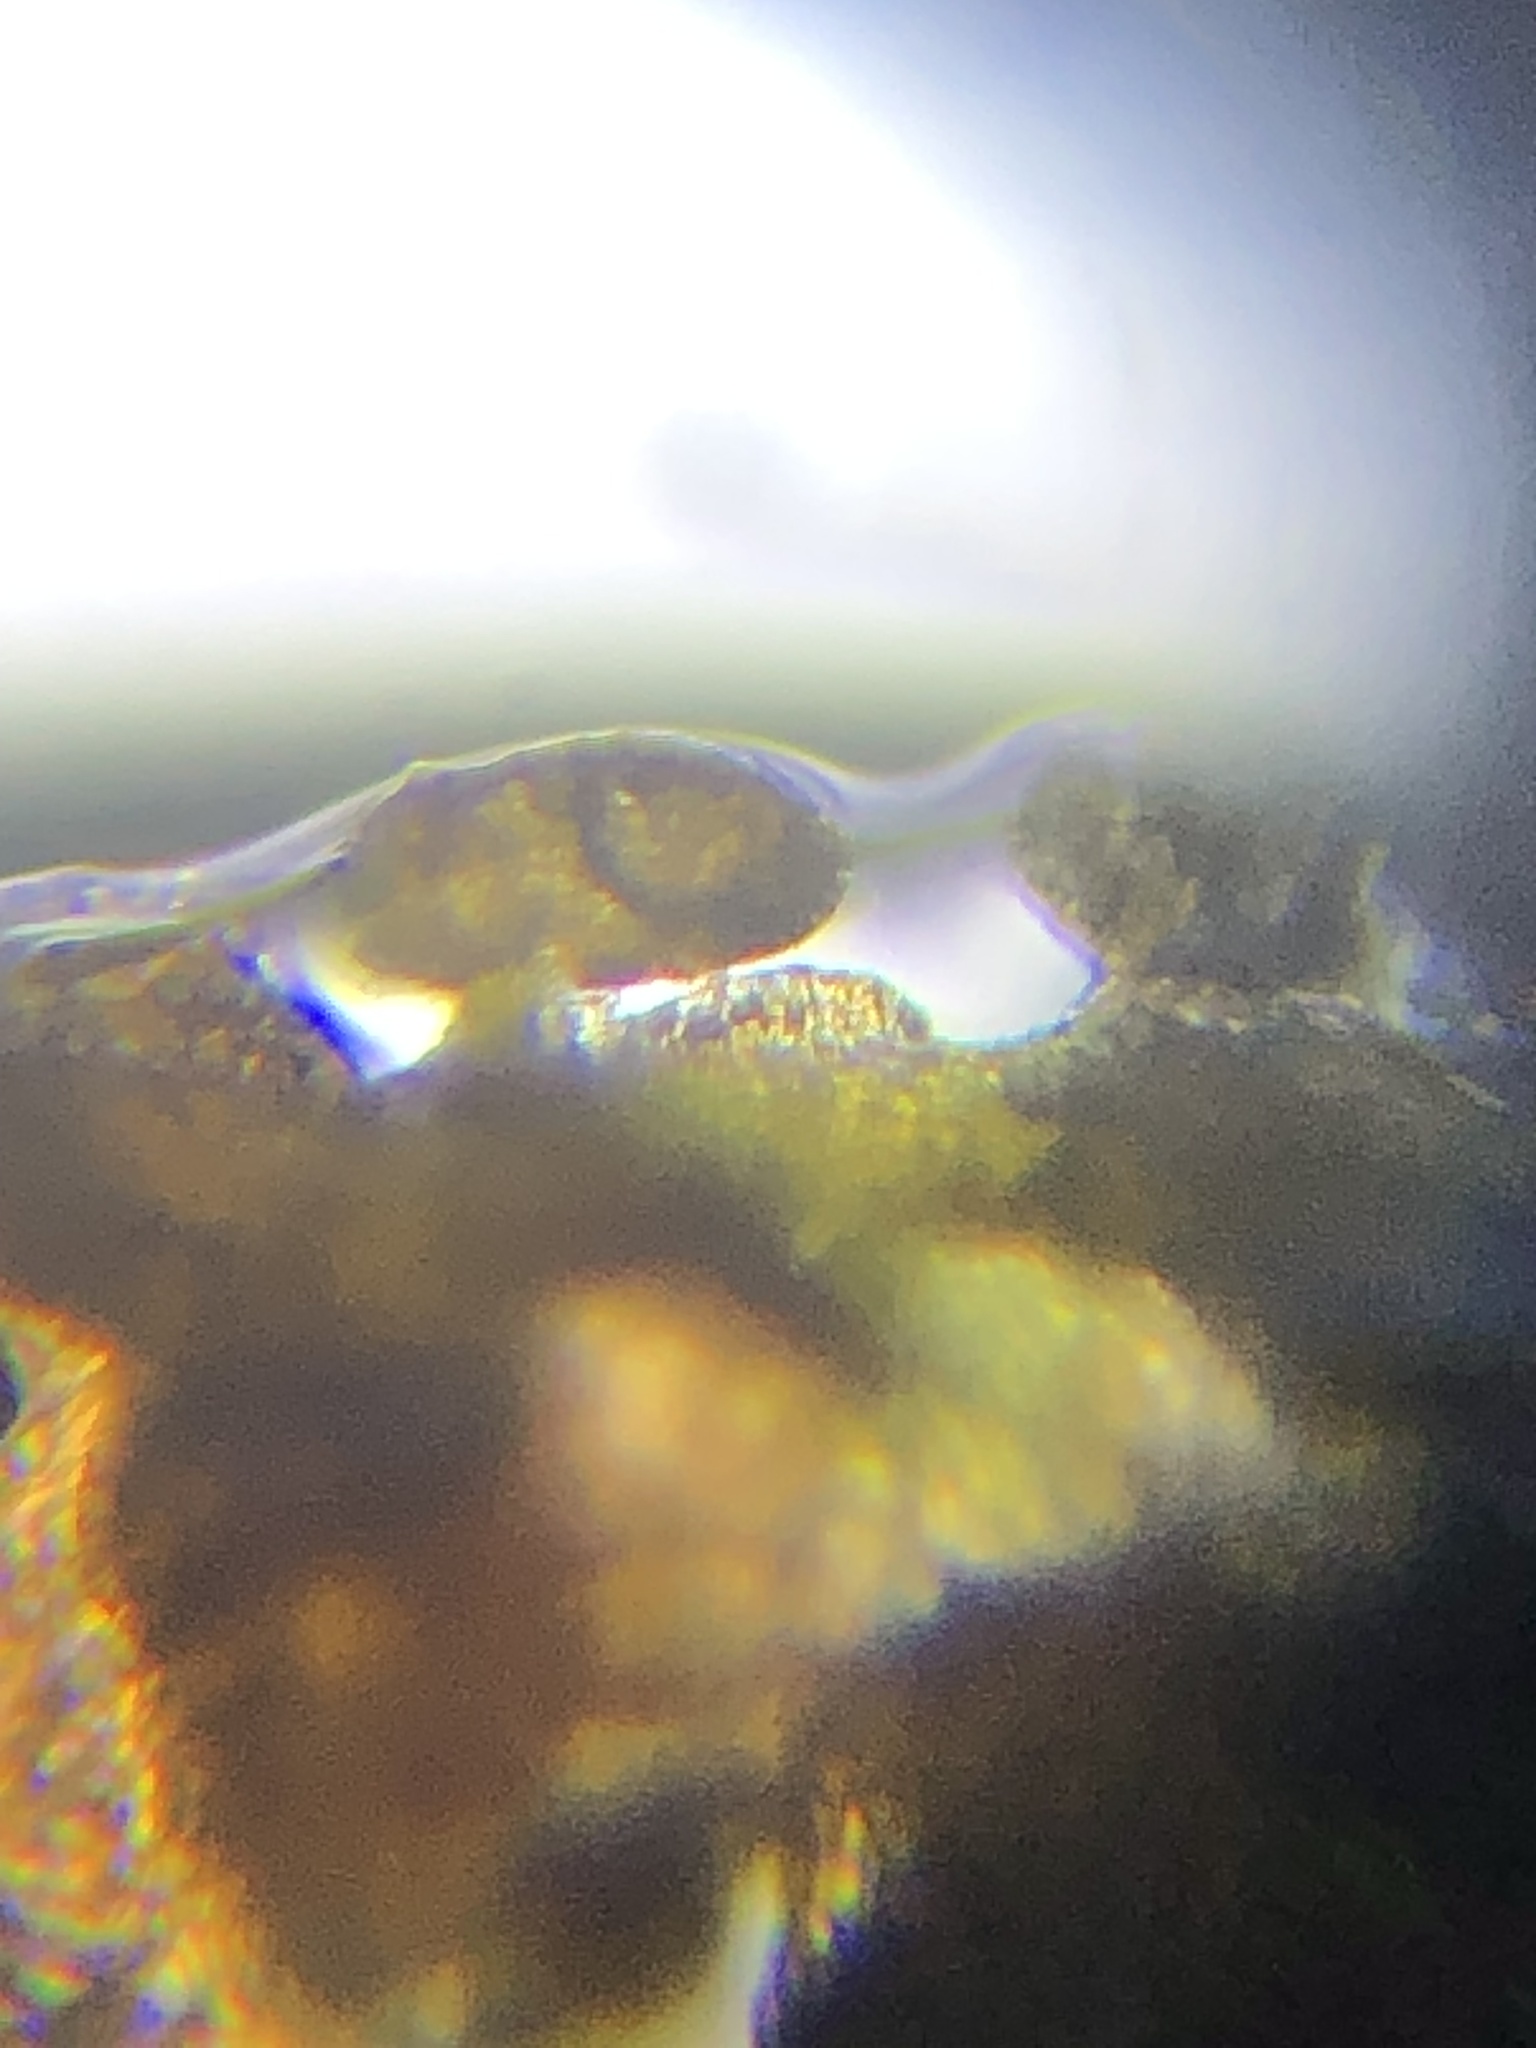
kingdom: Plantae
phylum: Marchantiophyta
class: Jungermanniopsida
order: Porellales
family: Frullaniaceae
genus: Frullania
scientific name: Frullania kunzei
